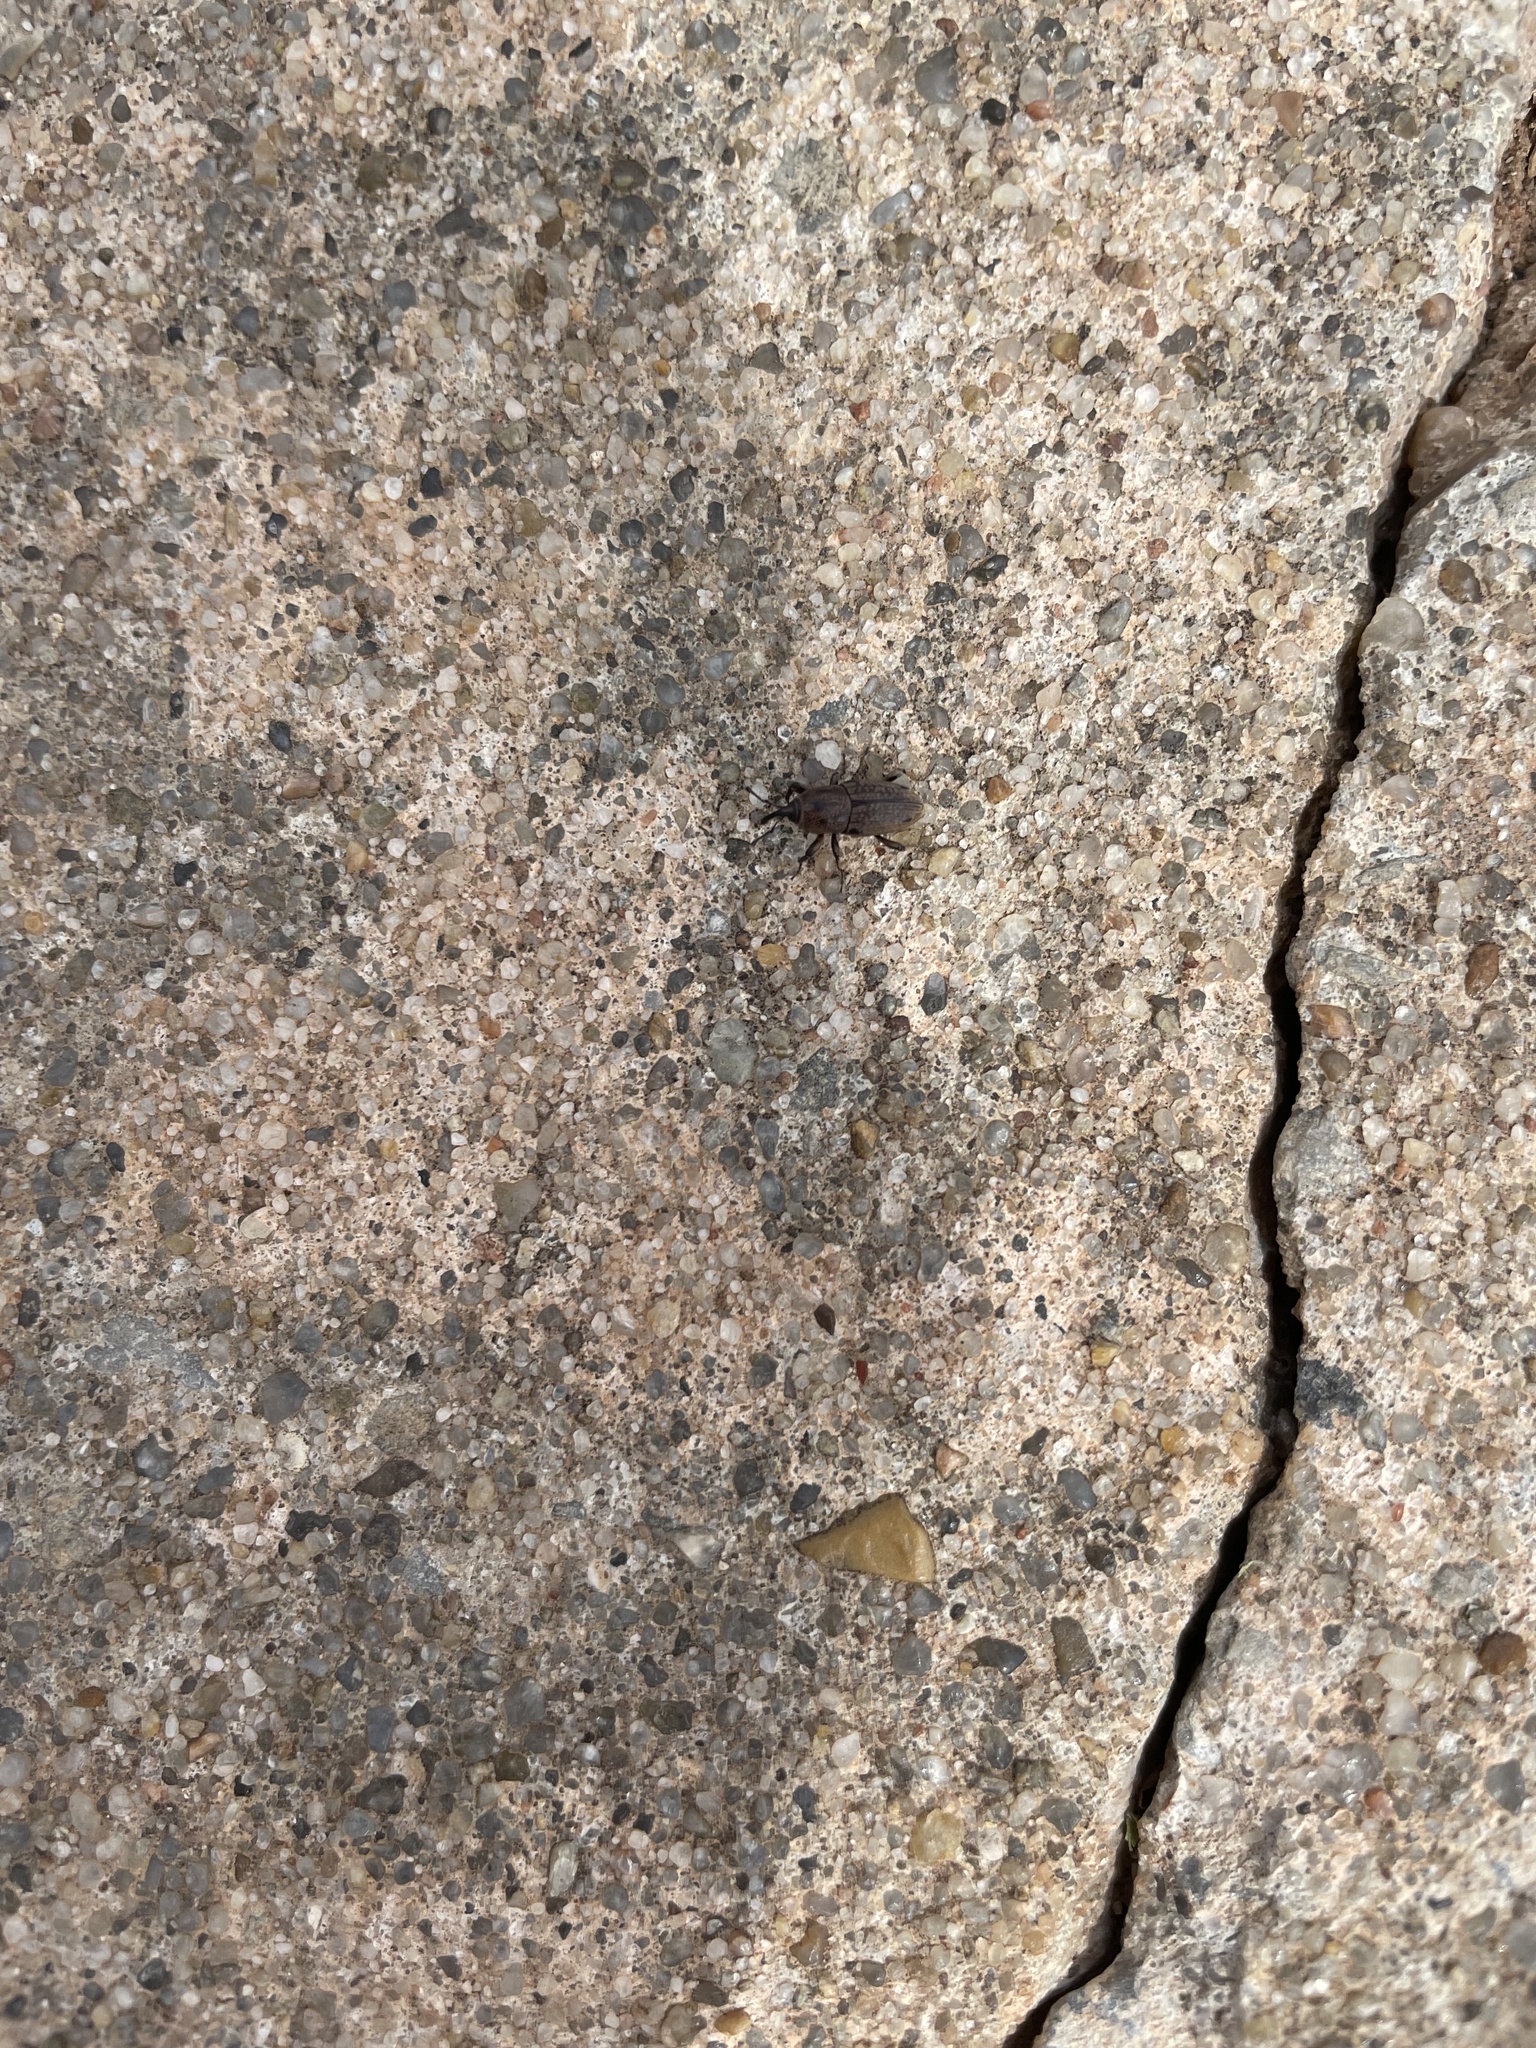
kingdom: Animalia
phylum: Arthropoda
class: Insecta
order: Coleoptera
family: Dryophthoridae
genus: Sphenophorus
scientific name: Sphenophorus venatus
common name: Hunting billbug
